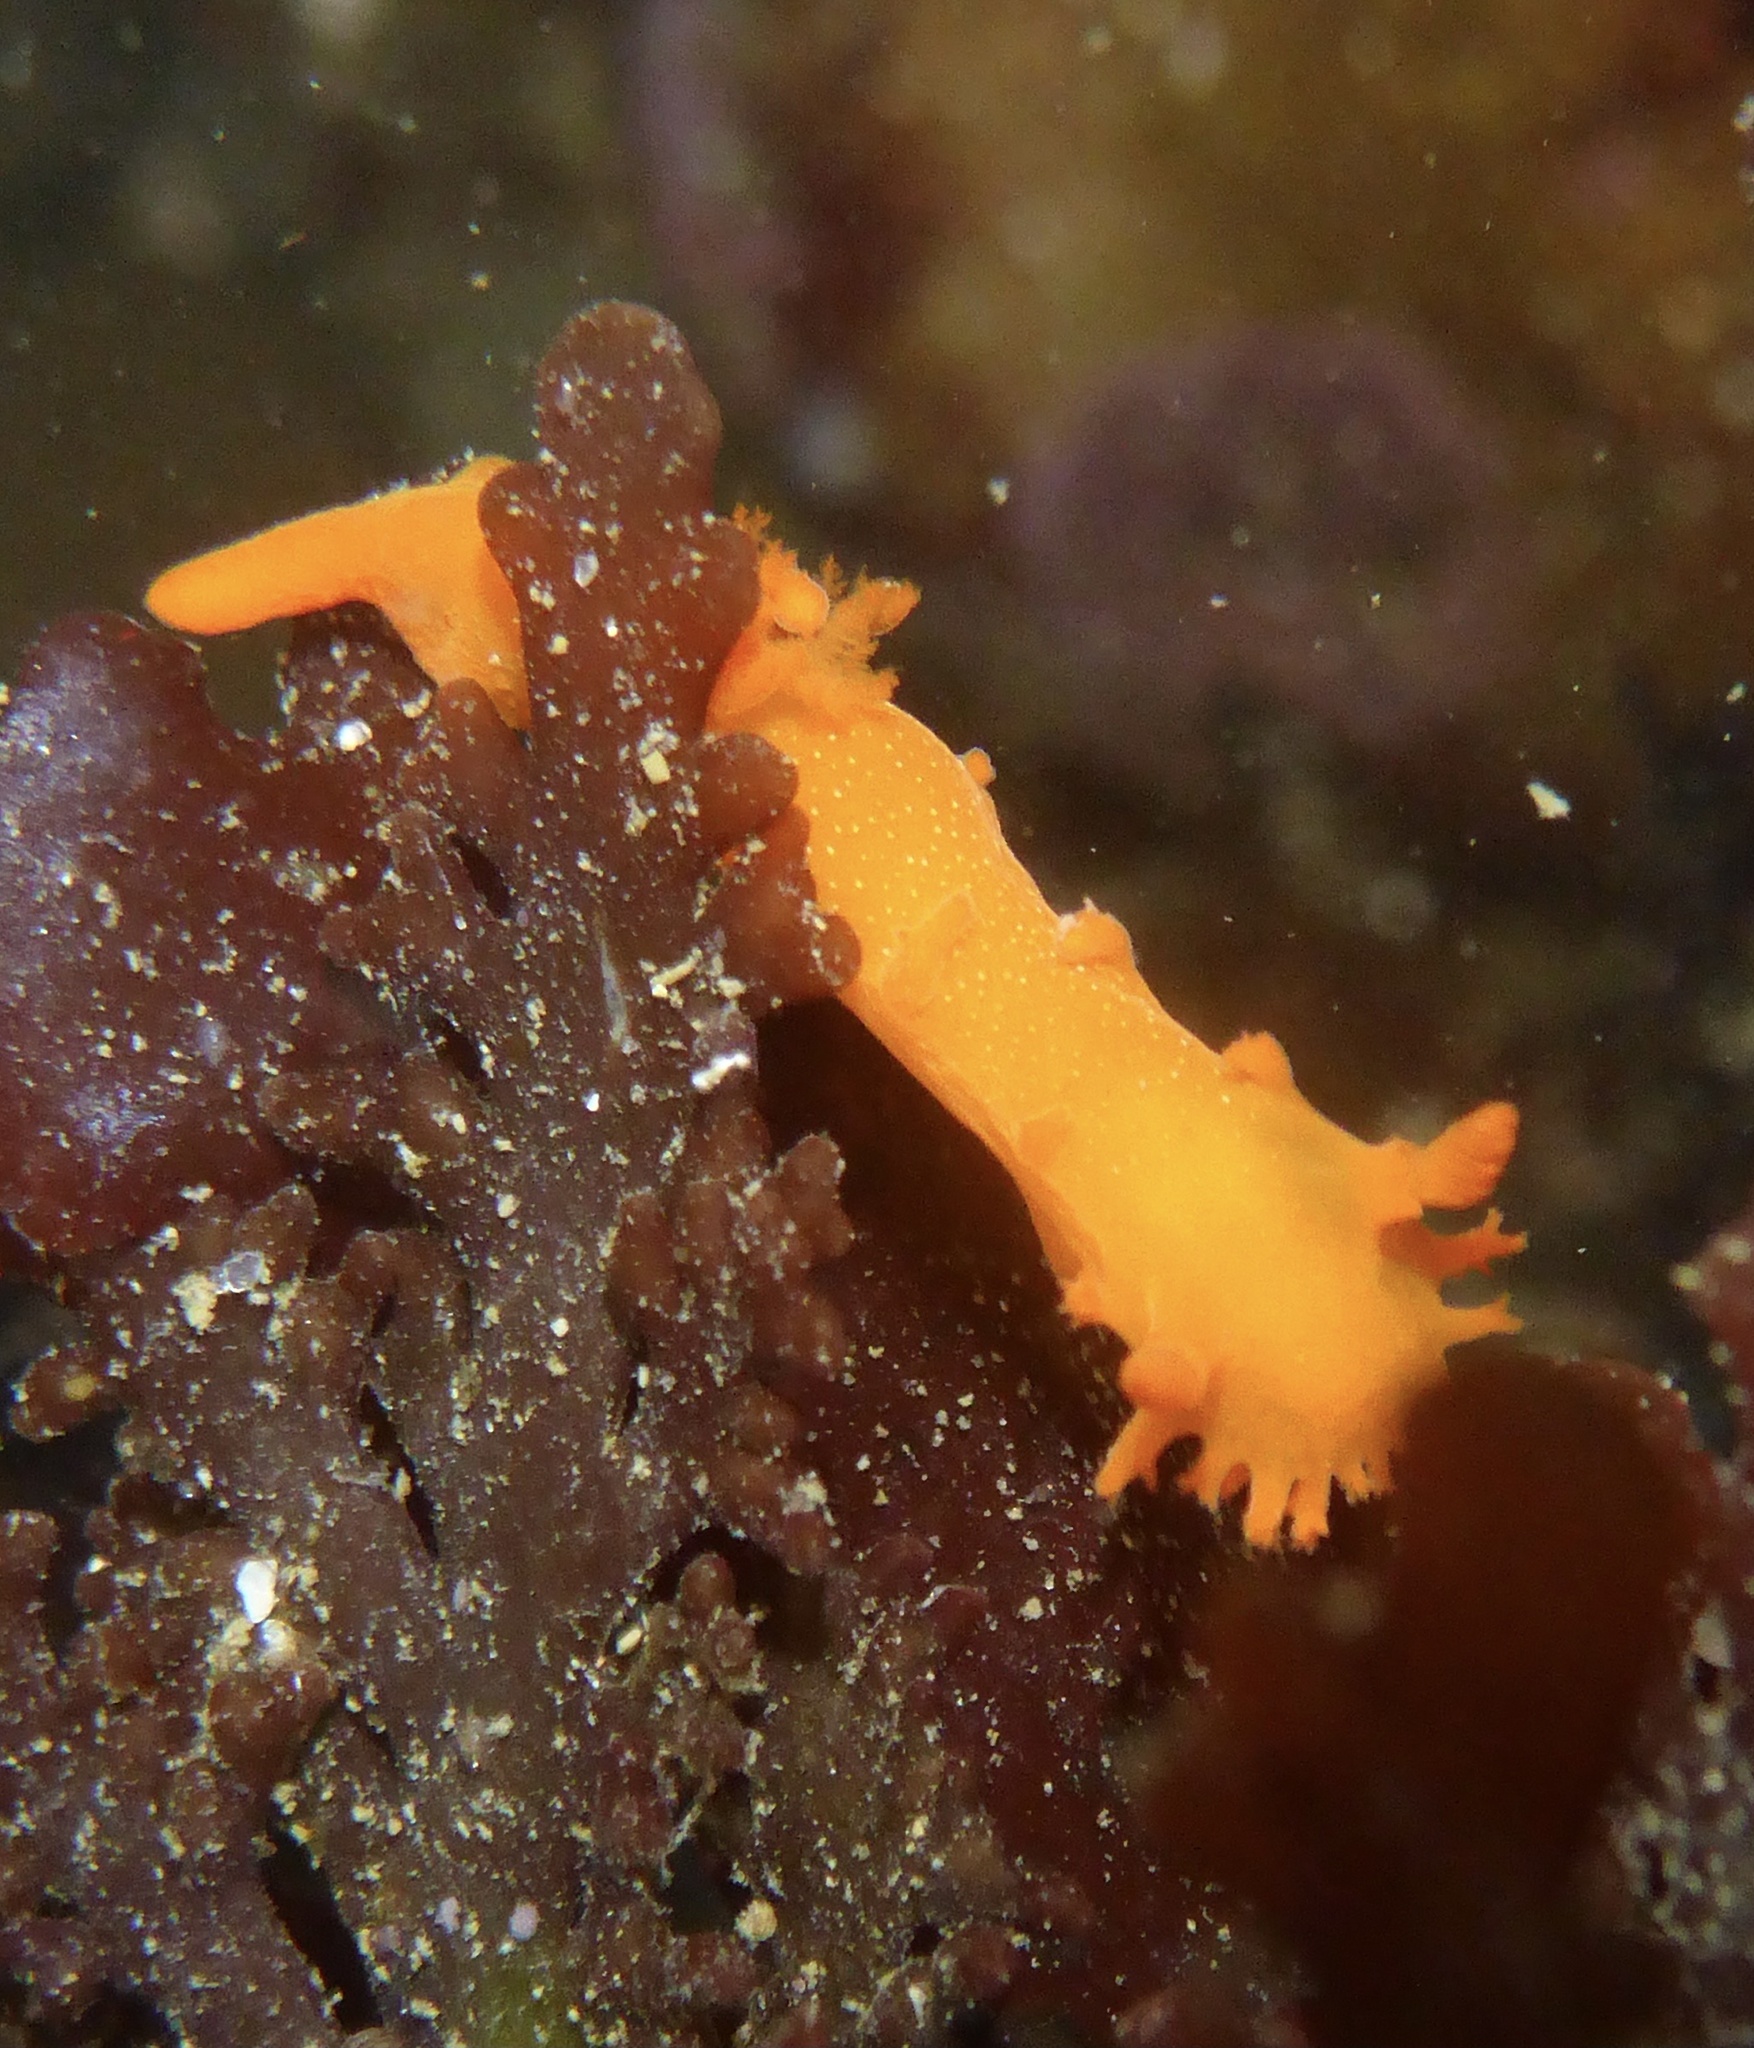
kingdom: Animalia
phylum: Mollusca
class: Gastropoda
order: Nudibranchia
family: Polyceridae
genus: Triopha
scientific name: Triopha maculata
